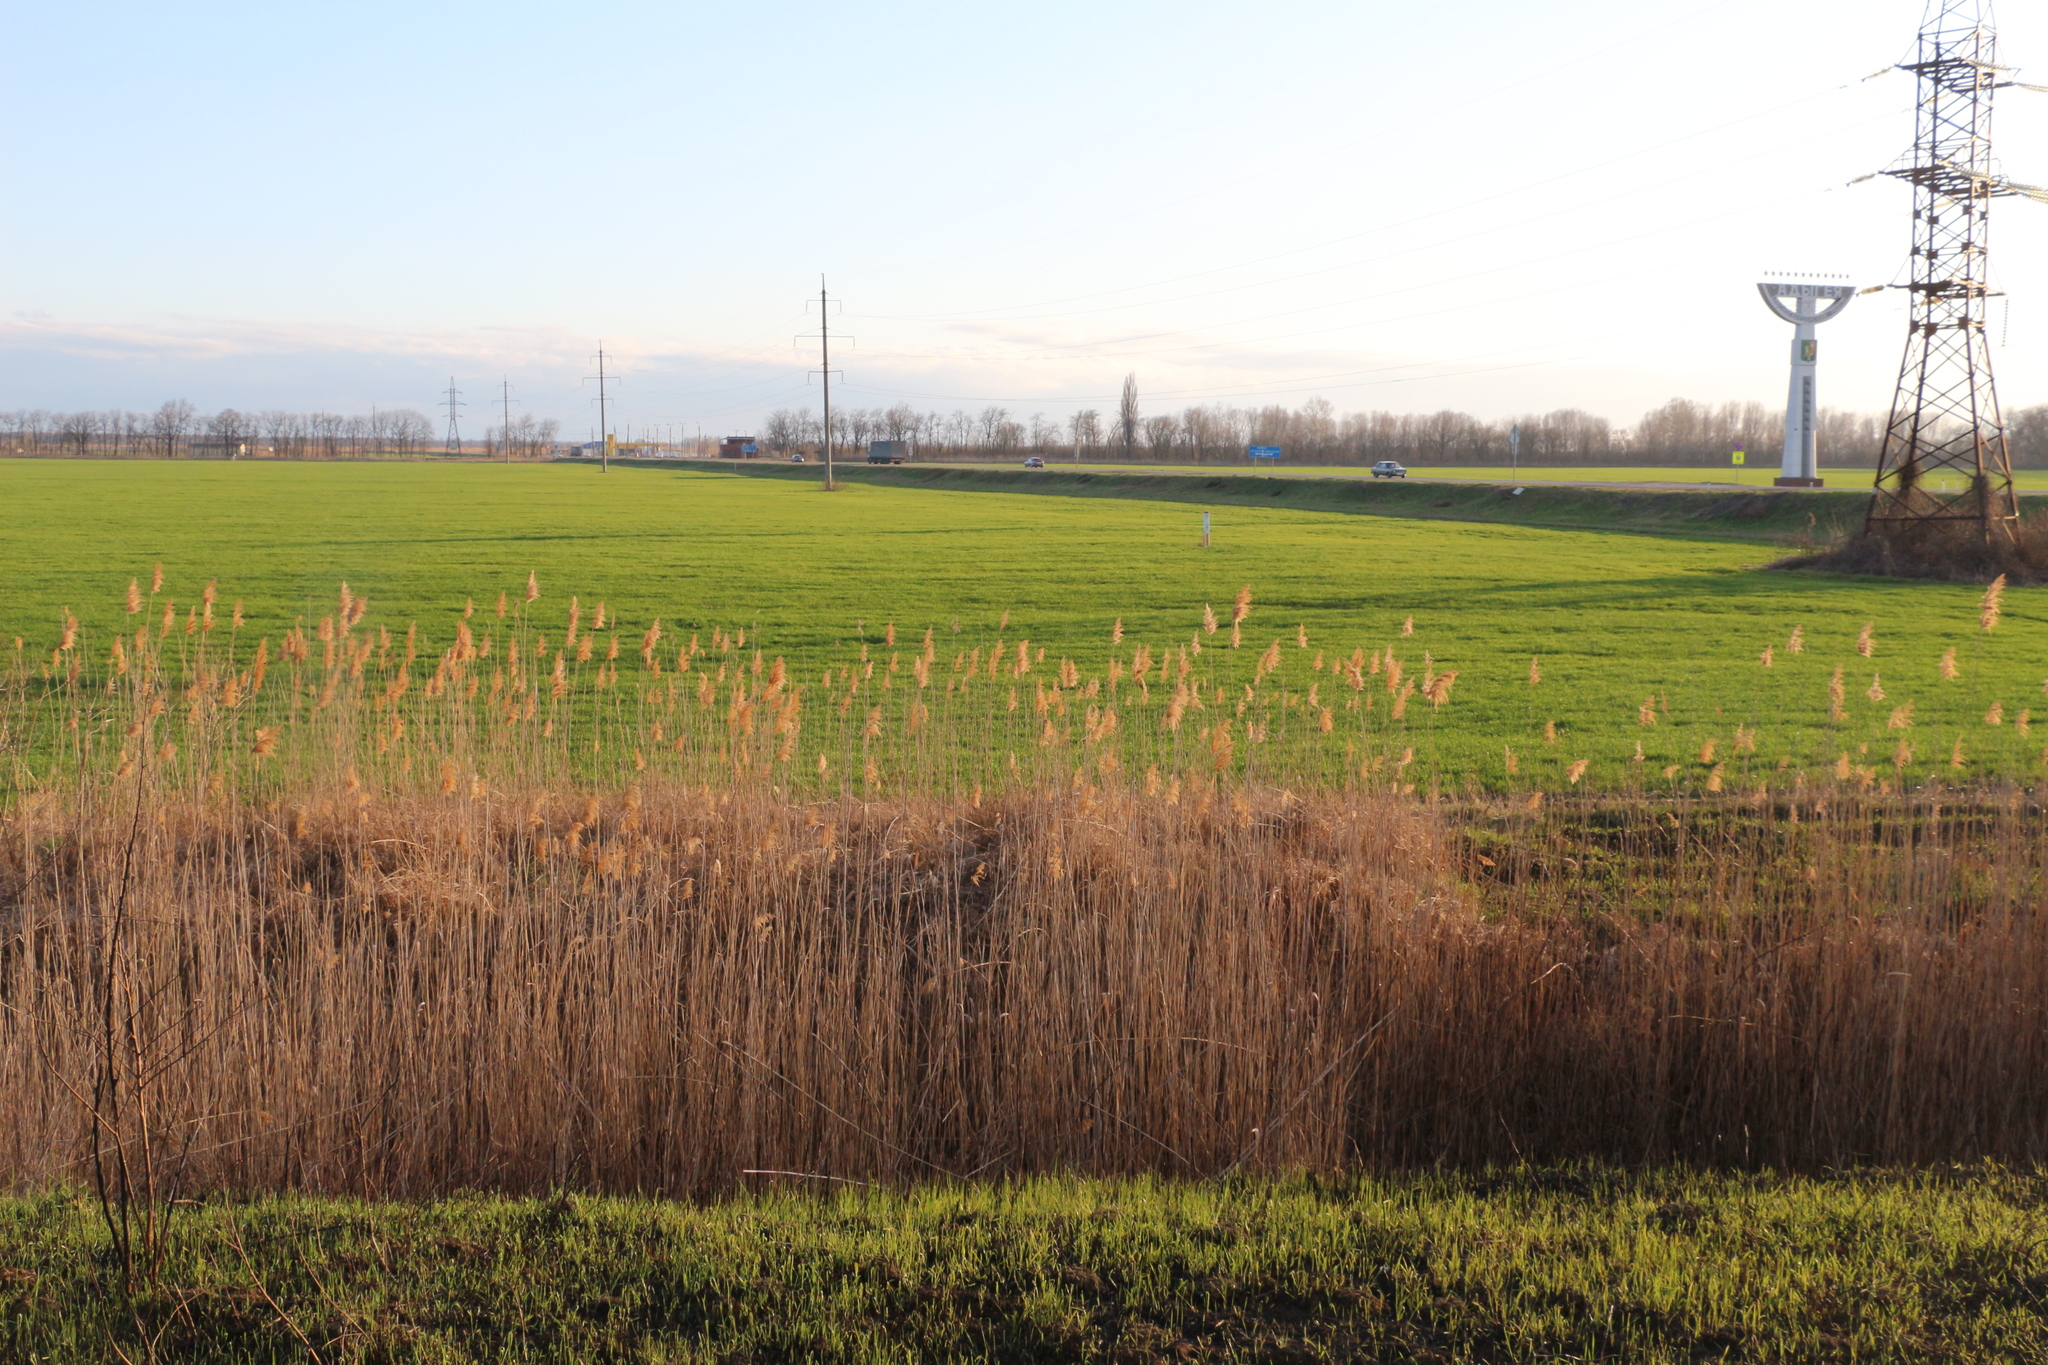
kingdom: Plantae
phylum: Tracheophyta
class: Liliopsida
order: Poales
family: Poaceae
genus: Phragmites
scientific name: Phragmites australis
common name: Common reed
